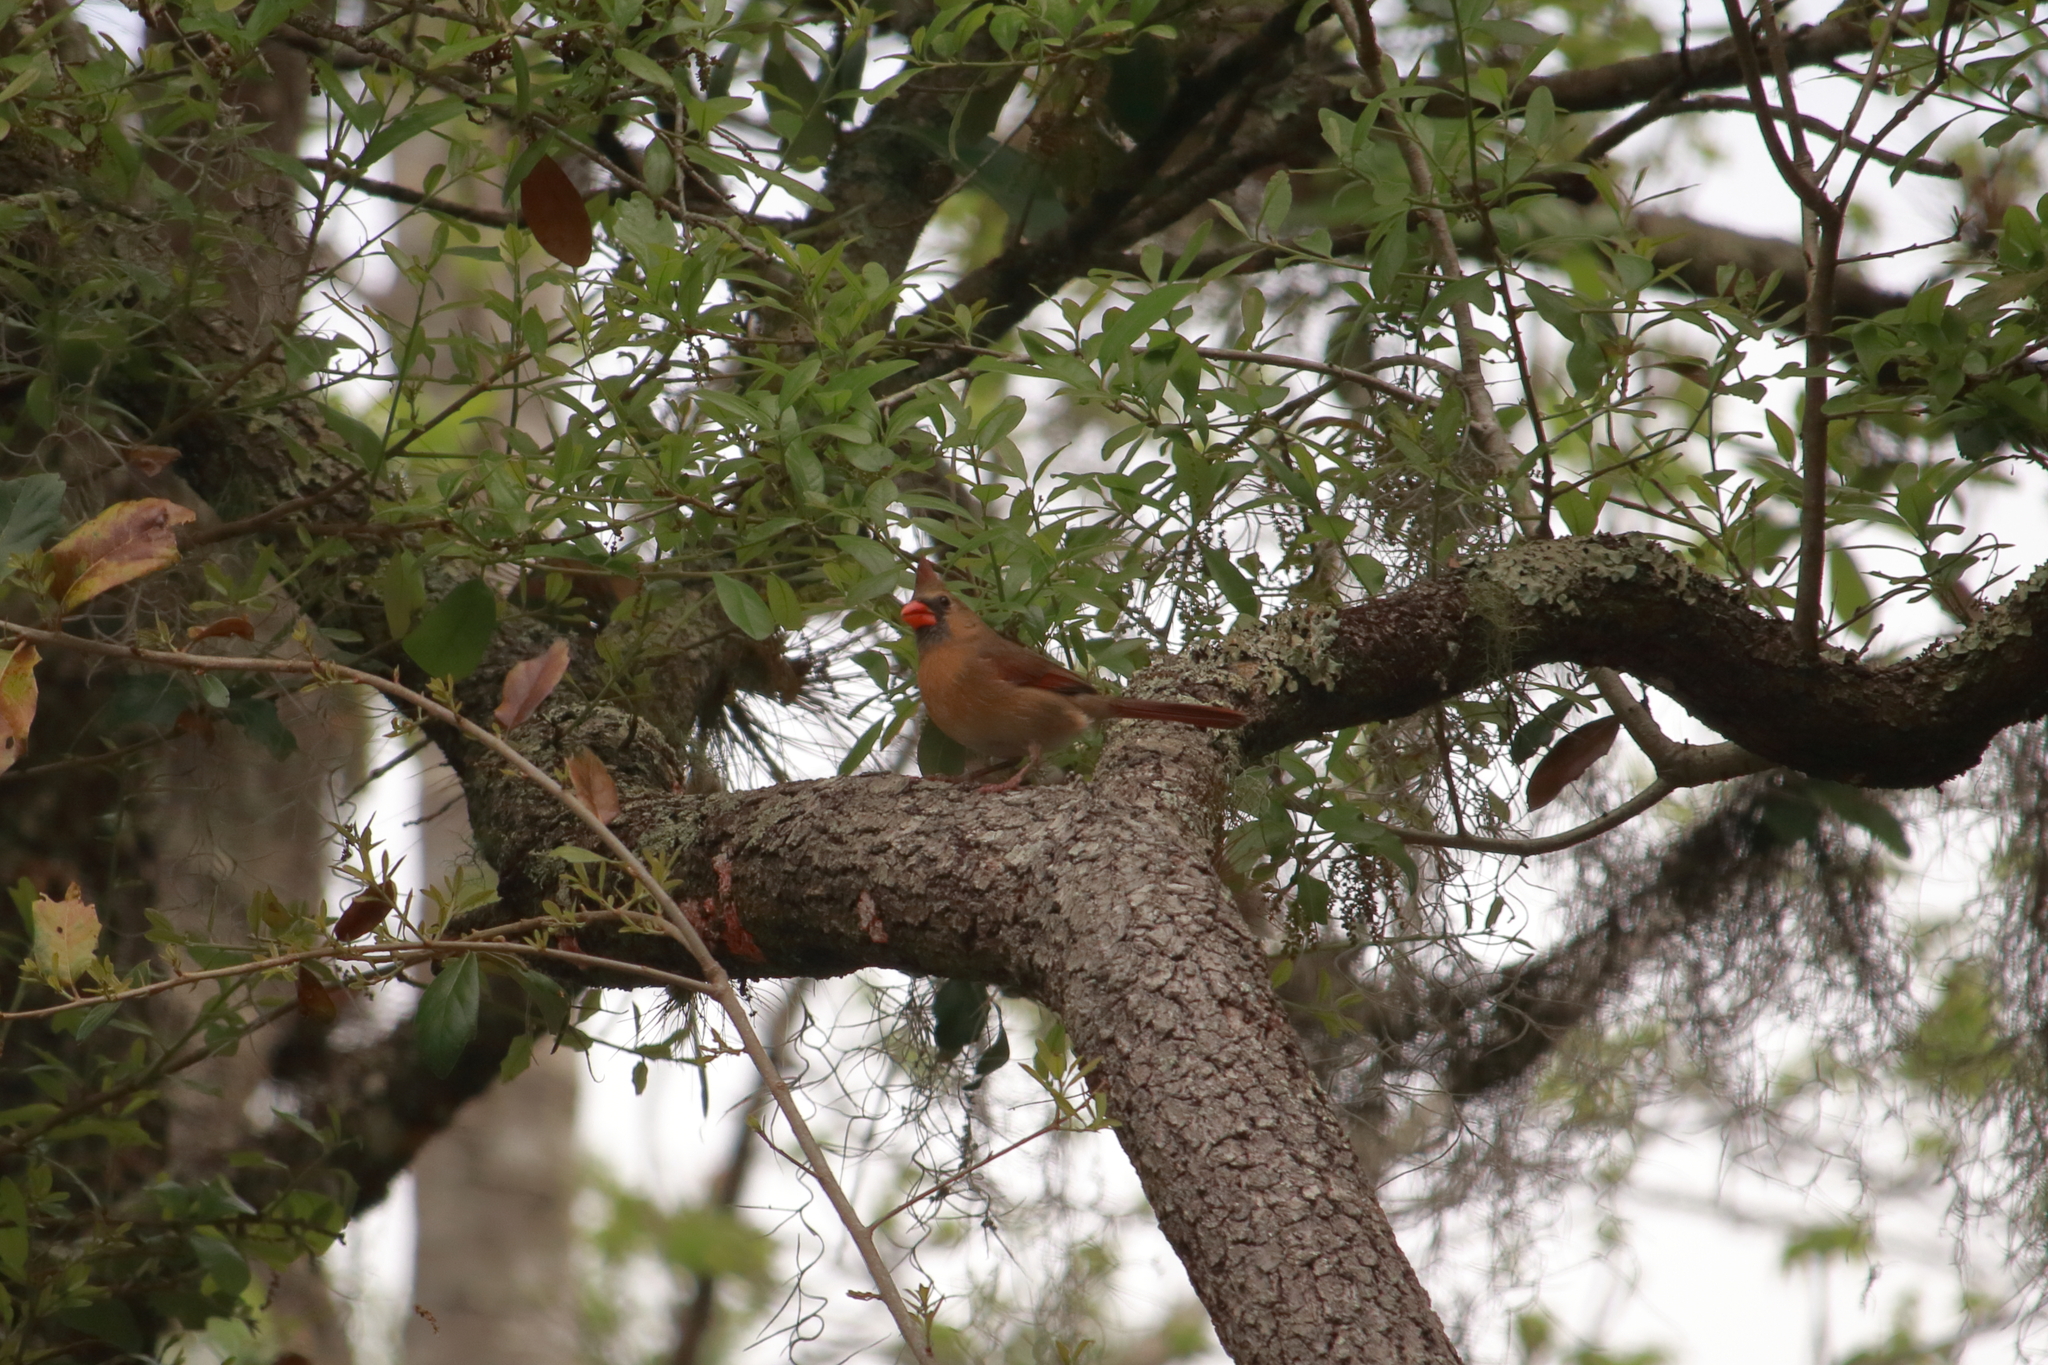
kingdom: Animalia
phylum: Chordata
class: Aves
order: Passeriformes
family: Cardinalidae
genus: Cardinalis
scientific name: Cardinalis cardinalis
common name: Northern cardinal
